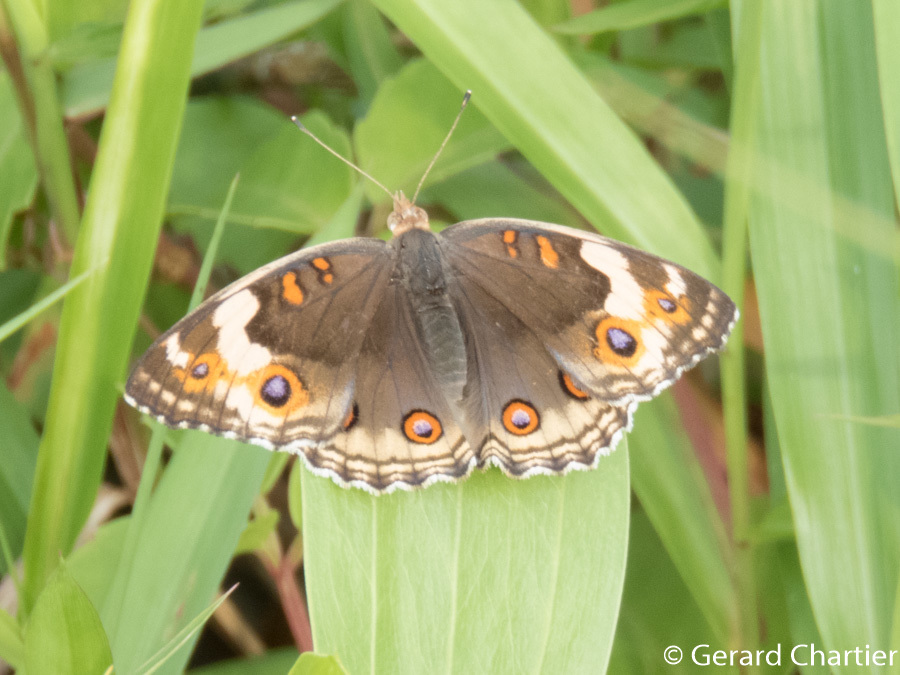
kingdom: Animalia
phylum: Arthropoda
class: Insecta
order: Lepidoptera
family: Nymphalidae
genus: Junonia
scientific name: Junonia orithya
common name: Blue pansy
